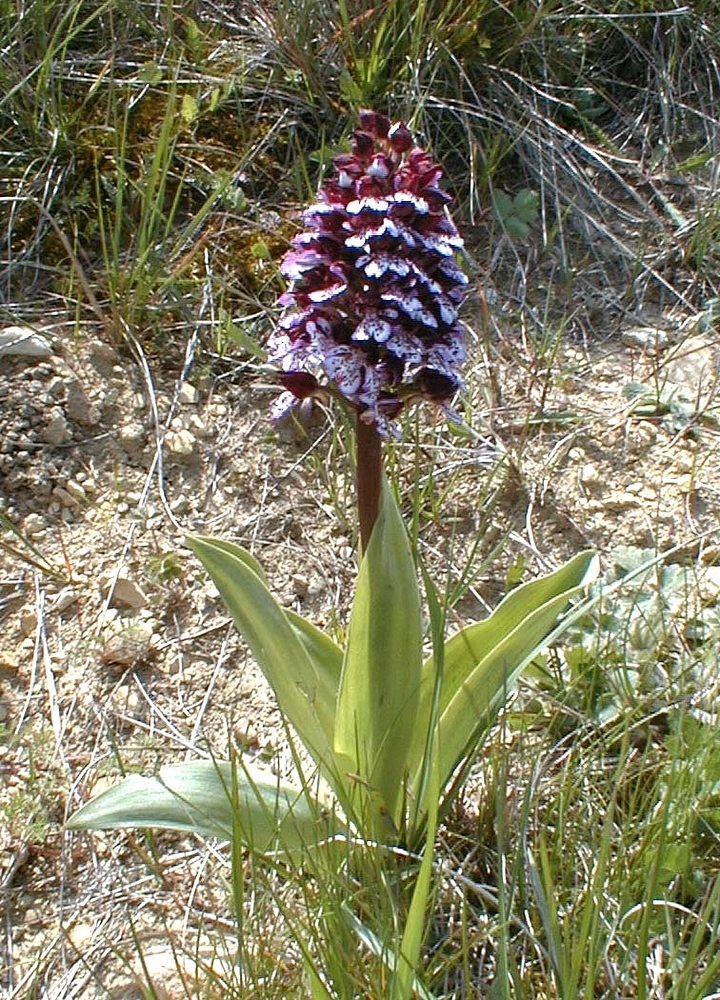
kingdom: Plantae
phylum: Tracheophyta
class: Liliopsida
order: Asparagales
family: Orchidaceae
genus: Orchis
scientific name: Orchis purpurea
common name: Lady orchid
